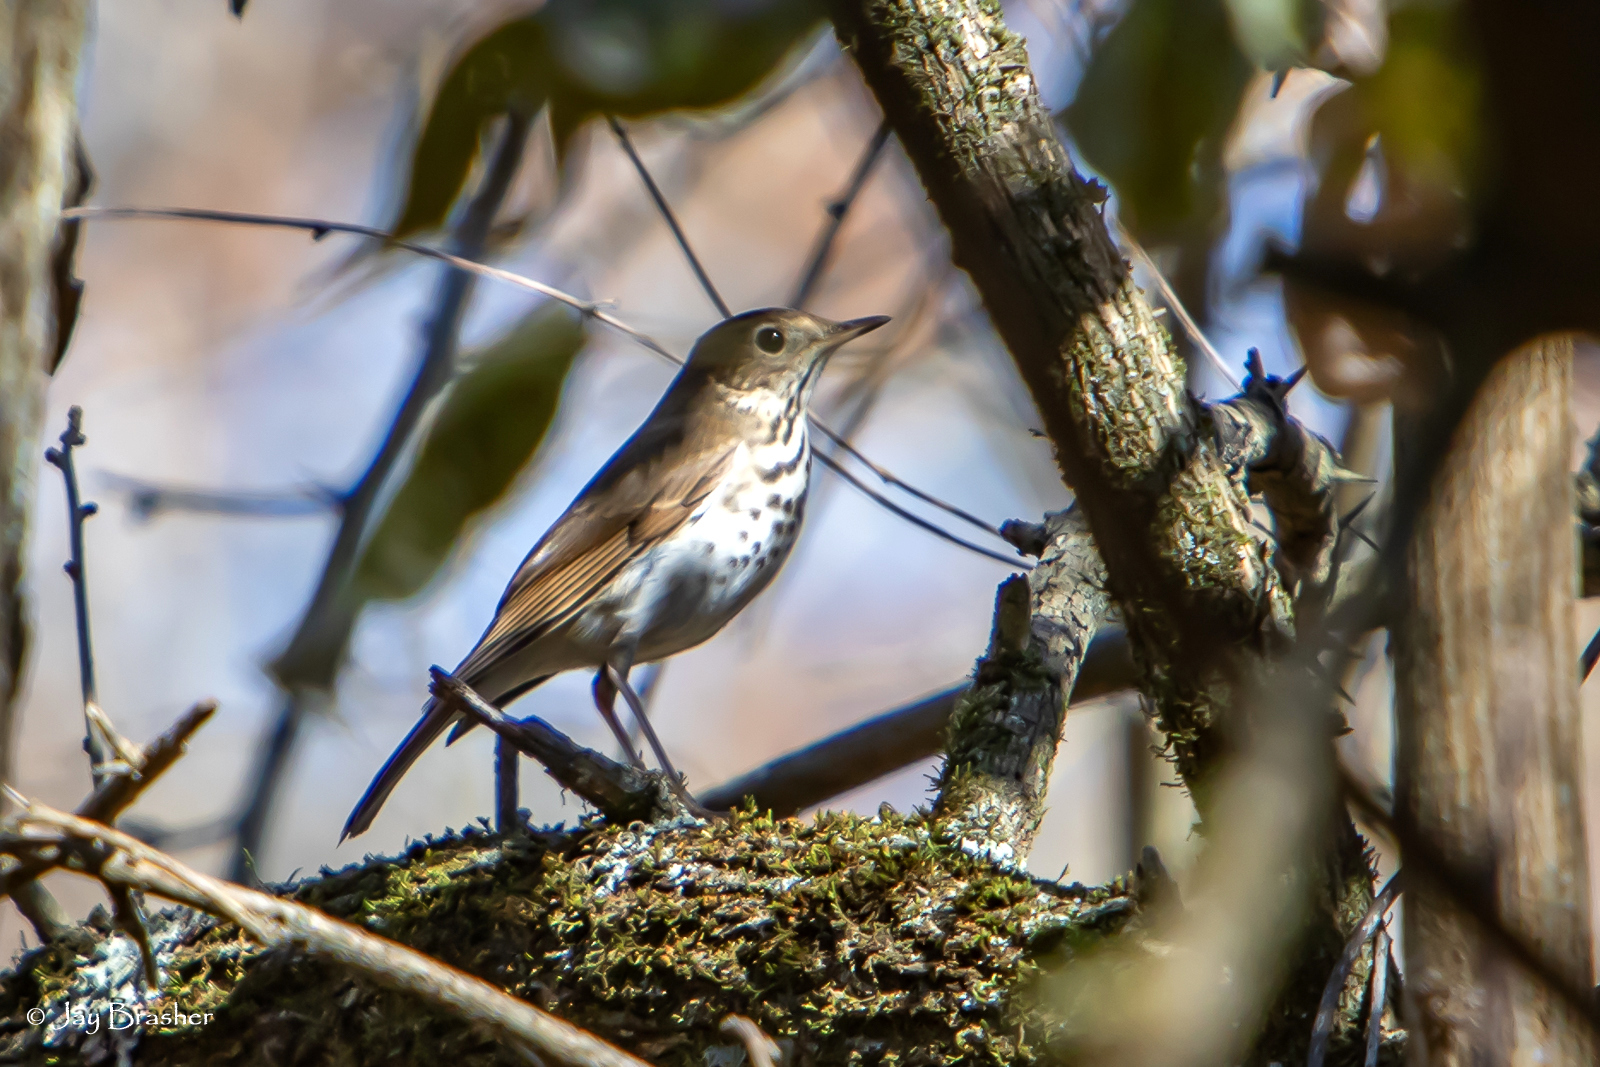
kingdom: Animalia
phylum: Chordata
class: Aves
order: Passeriformes
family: Turdidae
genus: Catharus
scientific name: Catharus guttatus
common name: Hermit thrush
